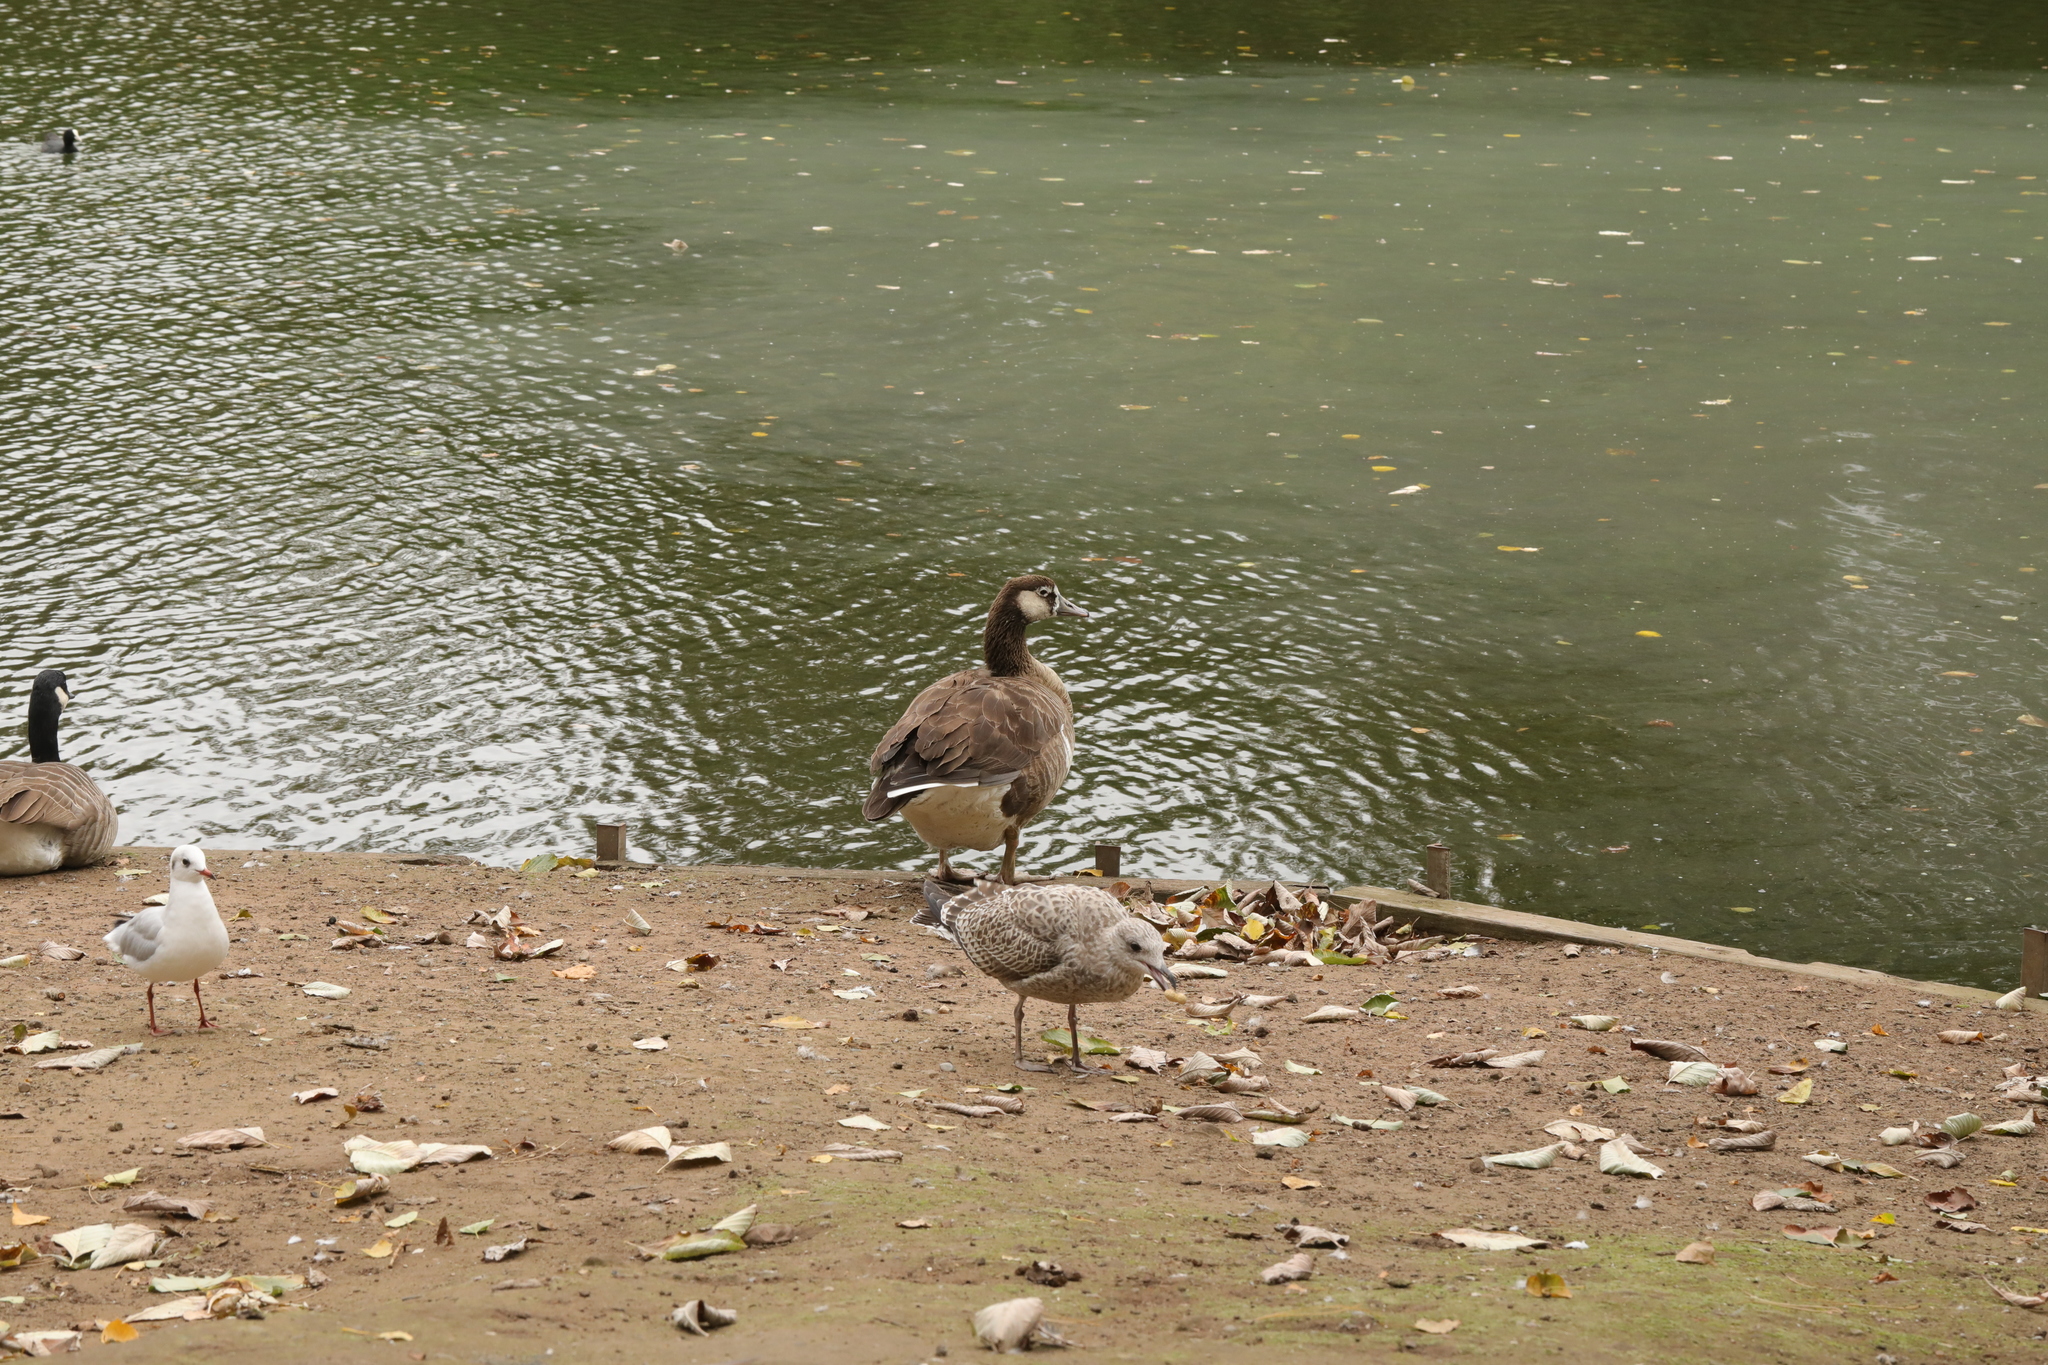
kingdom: Animalia
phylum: Chordata
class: Aves
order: Anseriformes
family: Anatidae
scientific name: Anatidae
